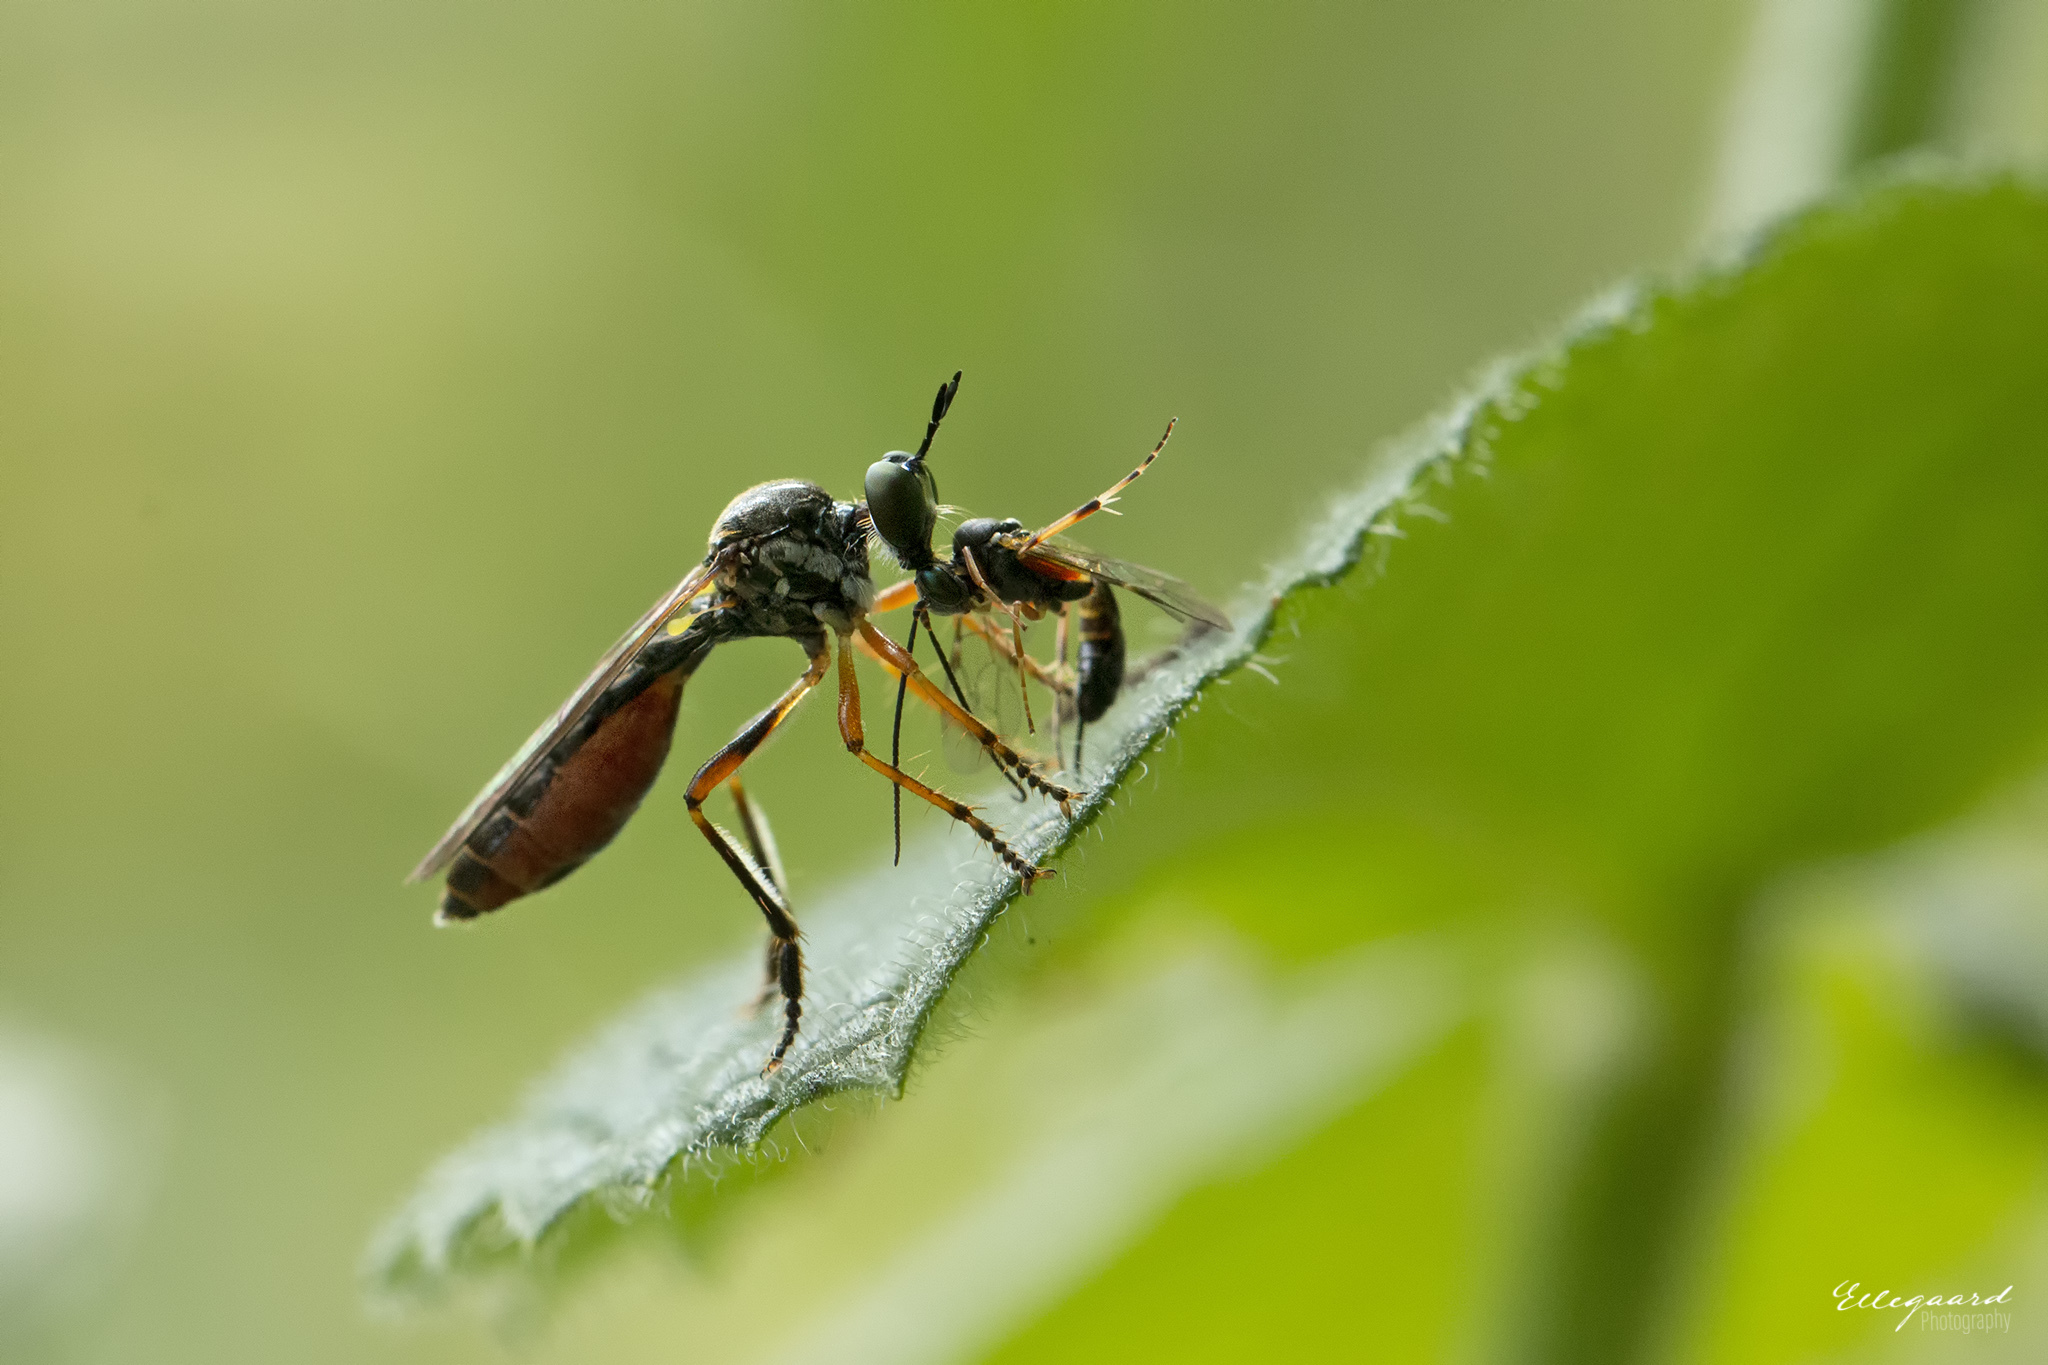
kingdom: Animalia
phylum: Arthropoda
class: Insecta
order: Diptera
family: Asilidae
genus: Dioctria
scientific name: Dioctria hyalipennis
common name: Stripe-legged robberfly
